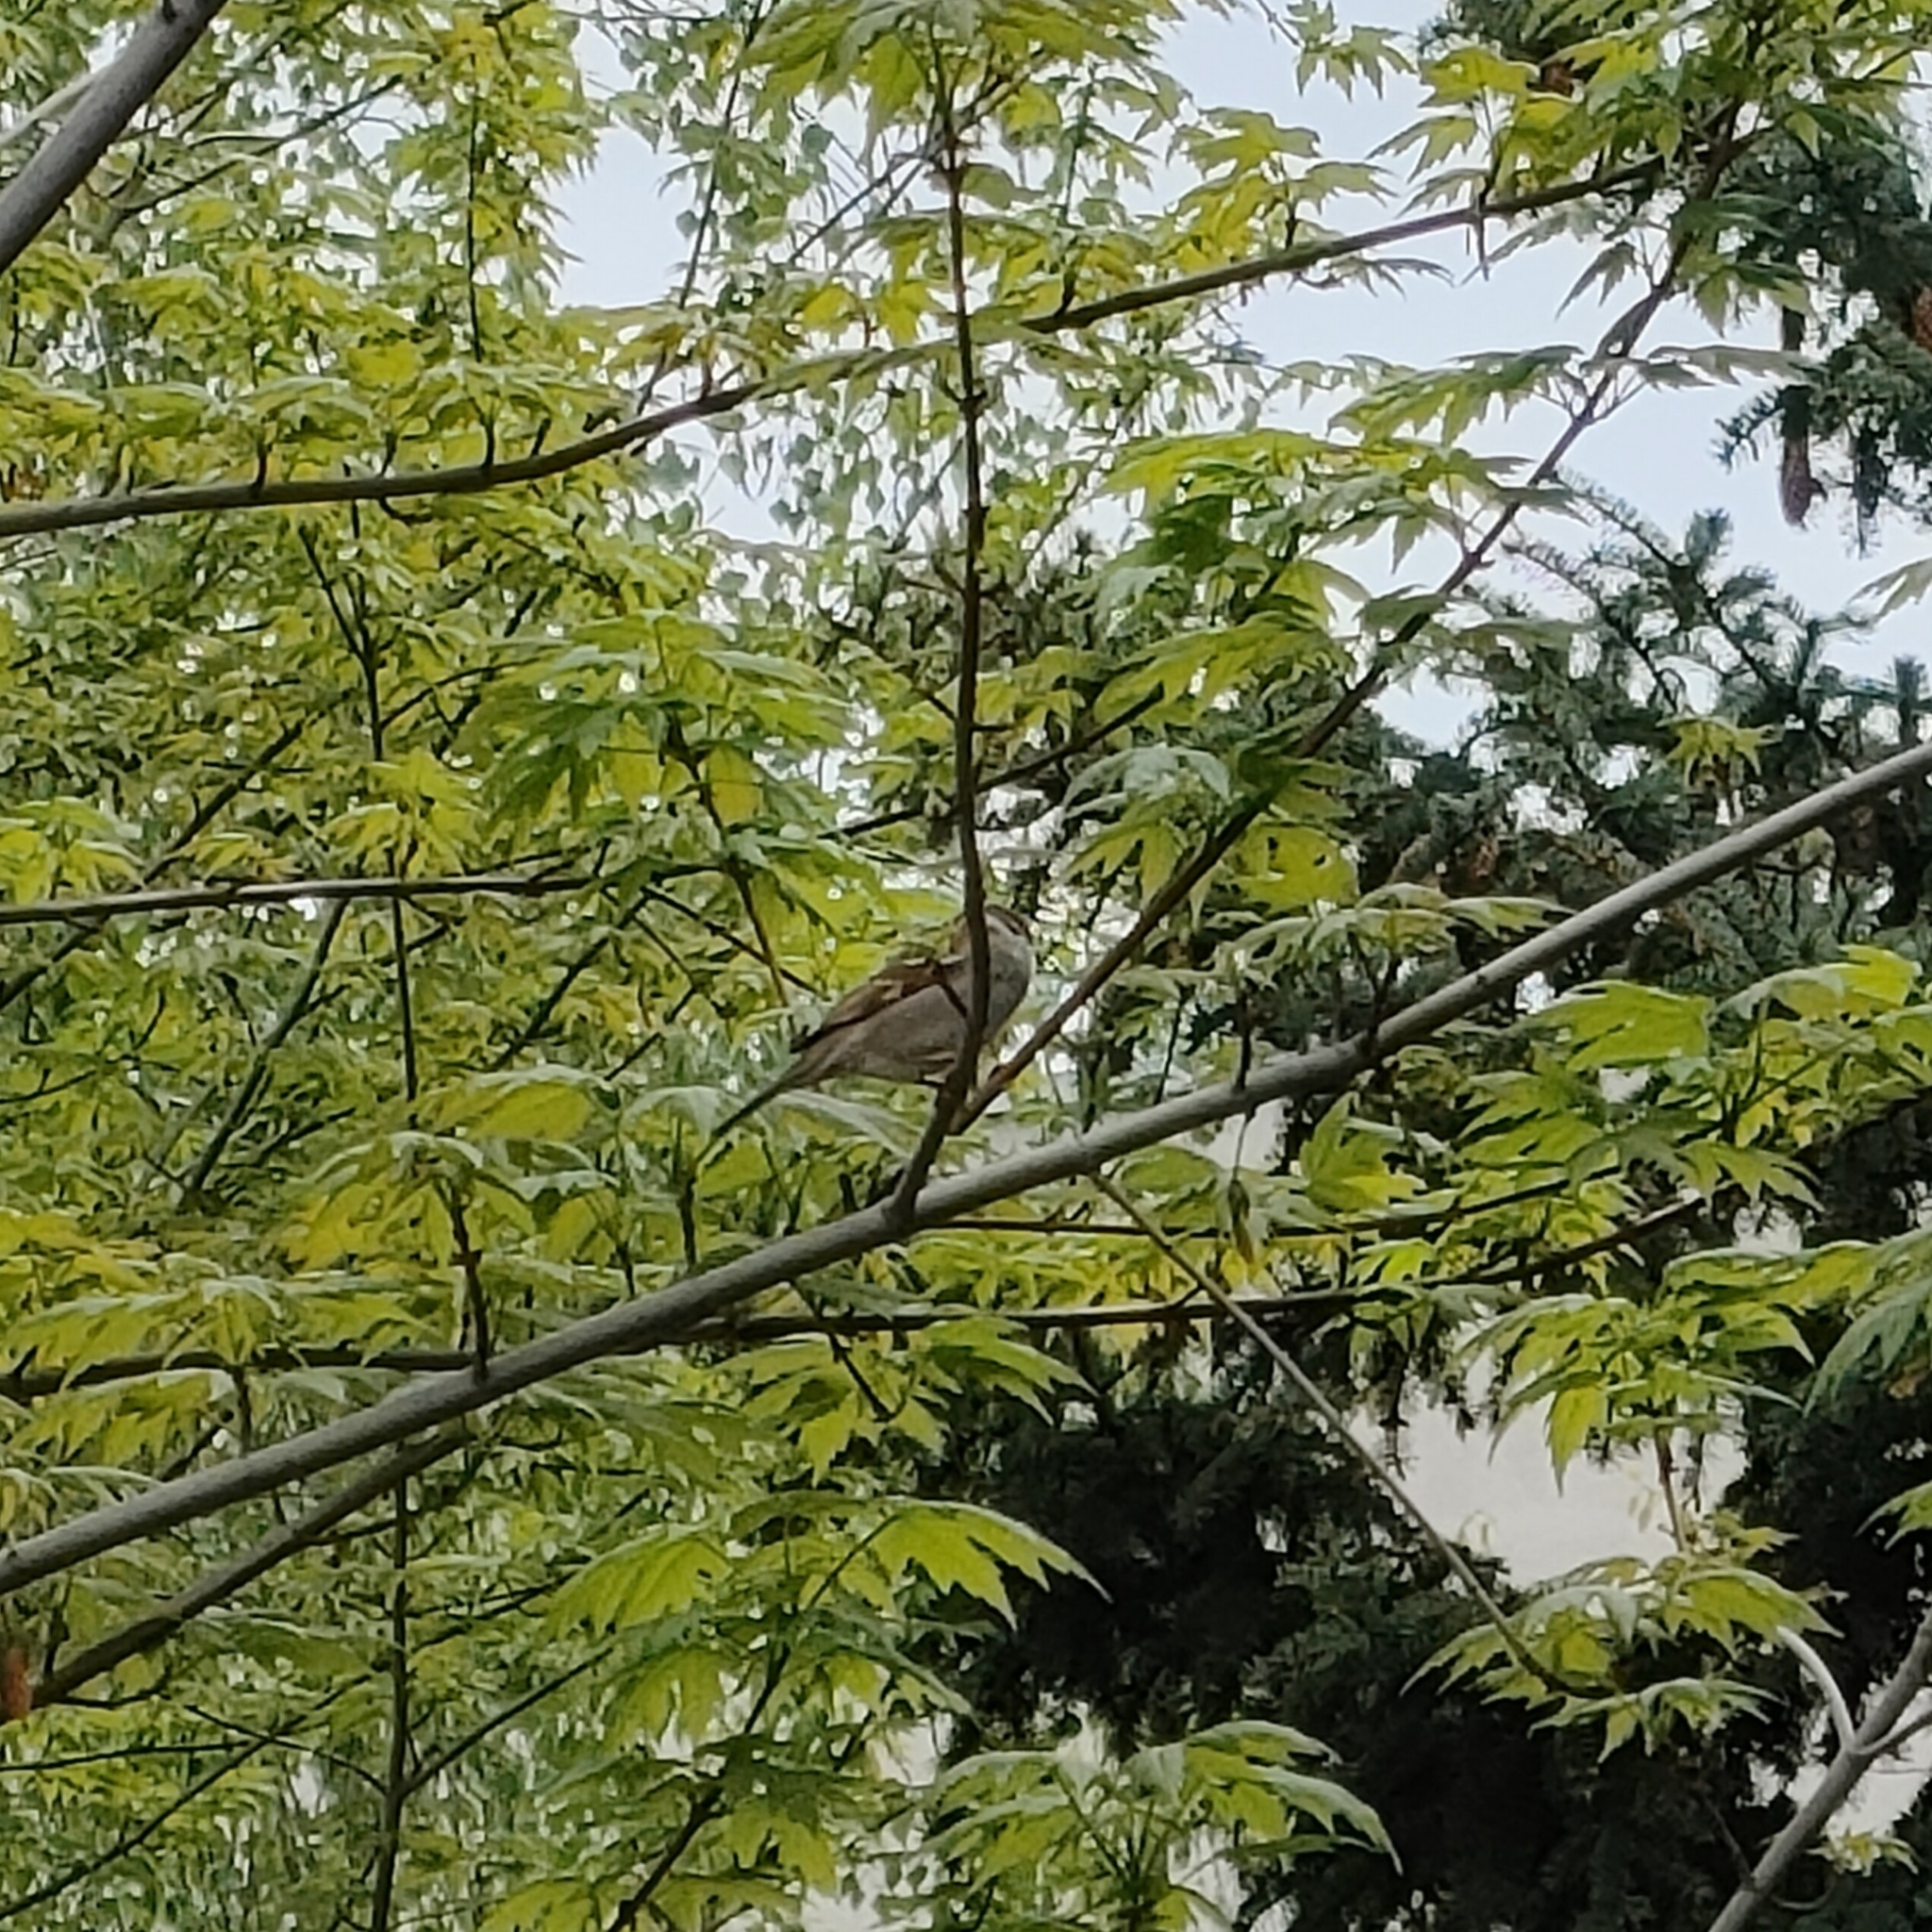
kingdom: Animalia
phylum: Chordata
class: Aves
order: Passeriformes
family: Passeridae
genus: Passer
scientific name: Passer montanus
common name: Eurasian tree sparrow
